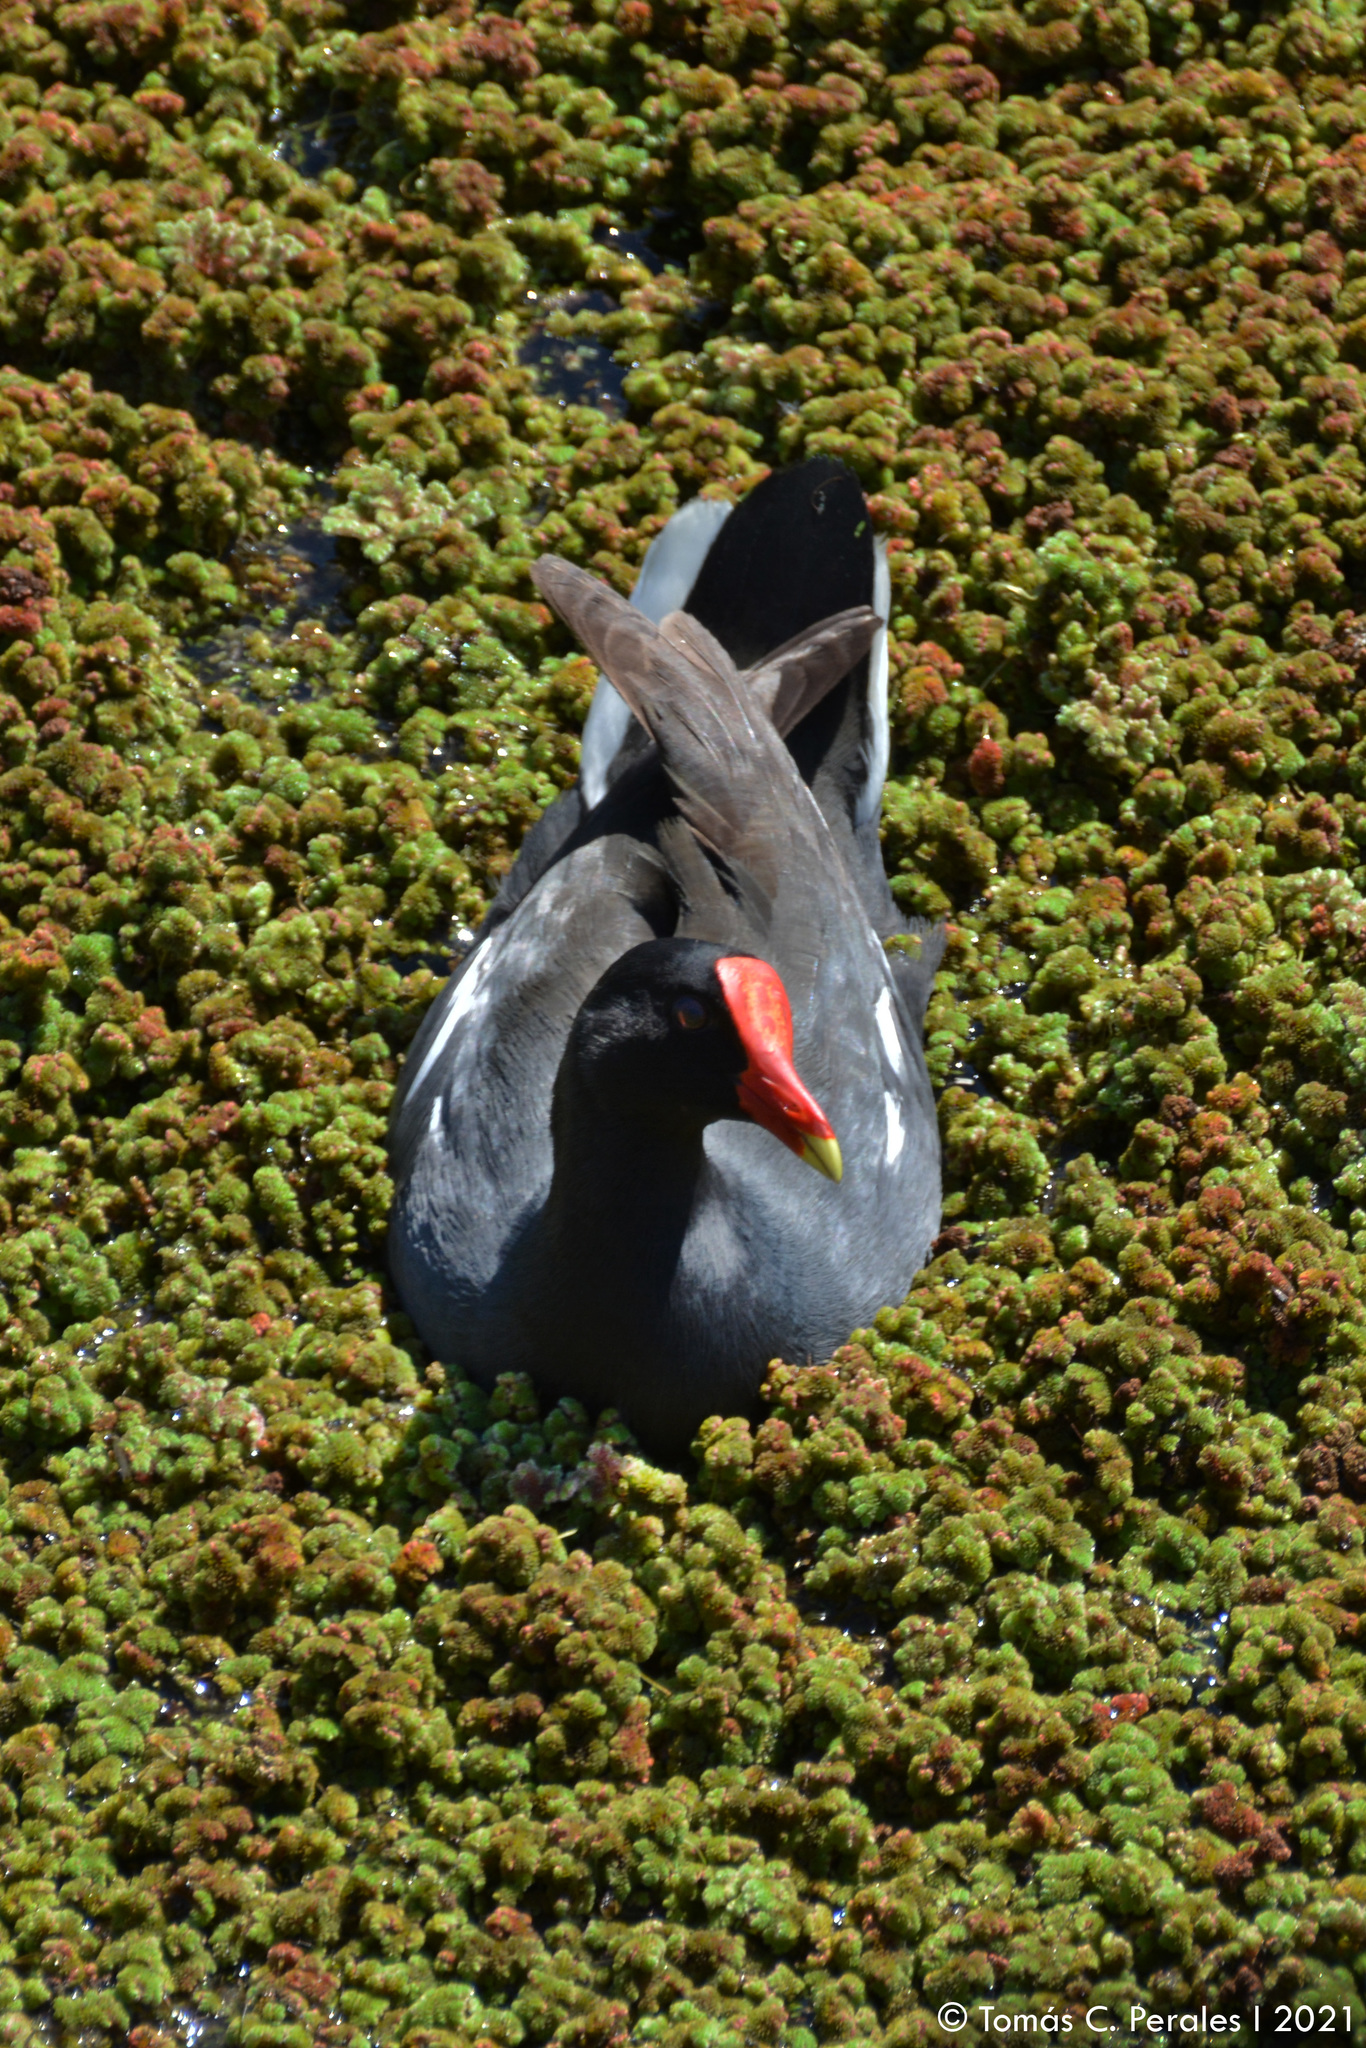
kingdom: Animalia
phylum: Chordata
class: Aves
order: Gruiformes
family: Rallidae
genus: Gallinula
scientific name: Gallinula chloropus
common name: Common moorhen
